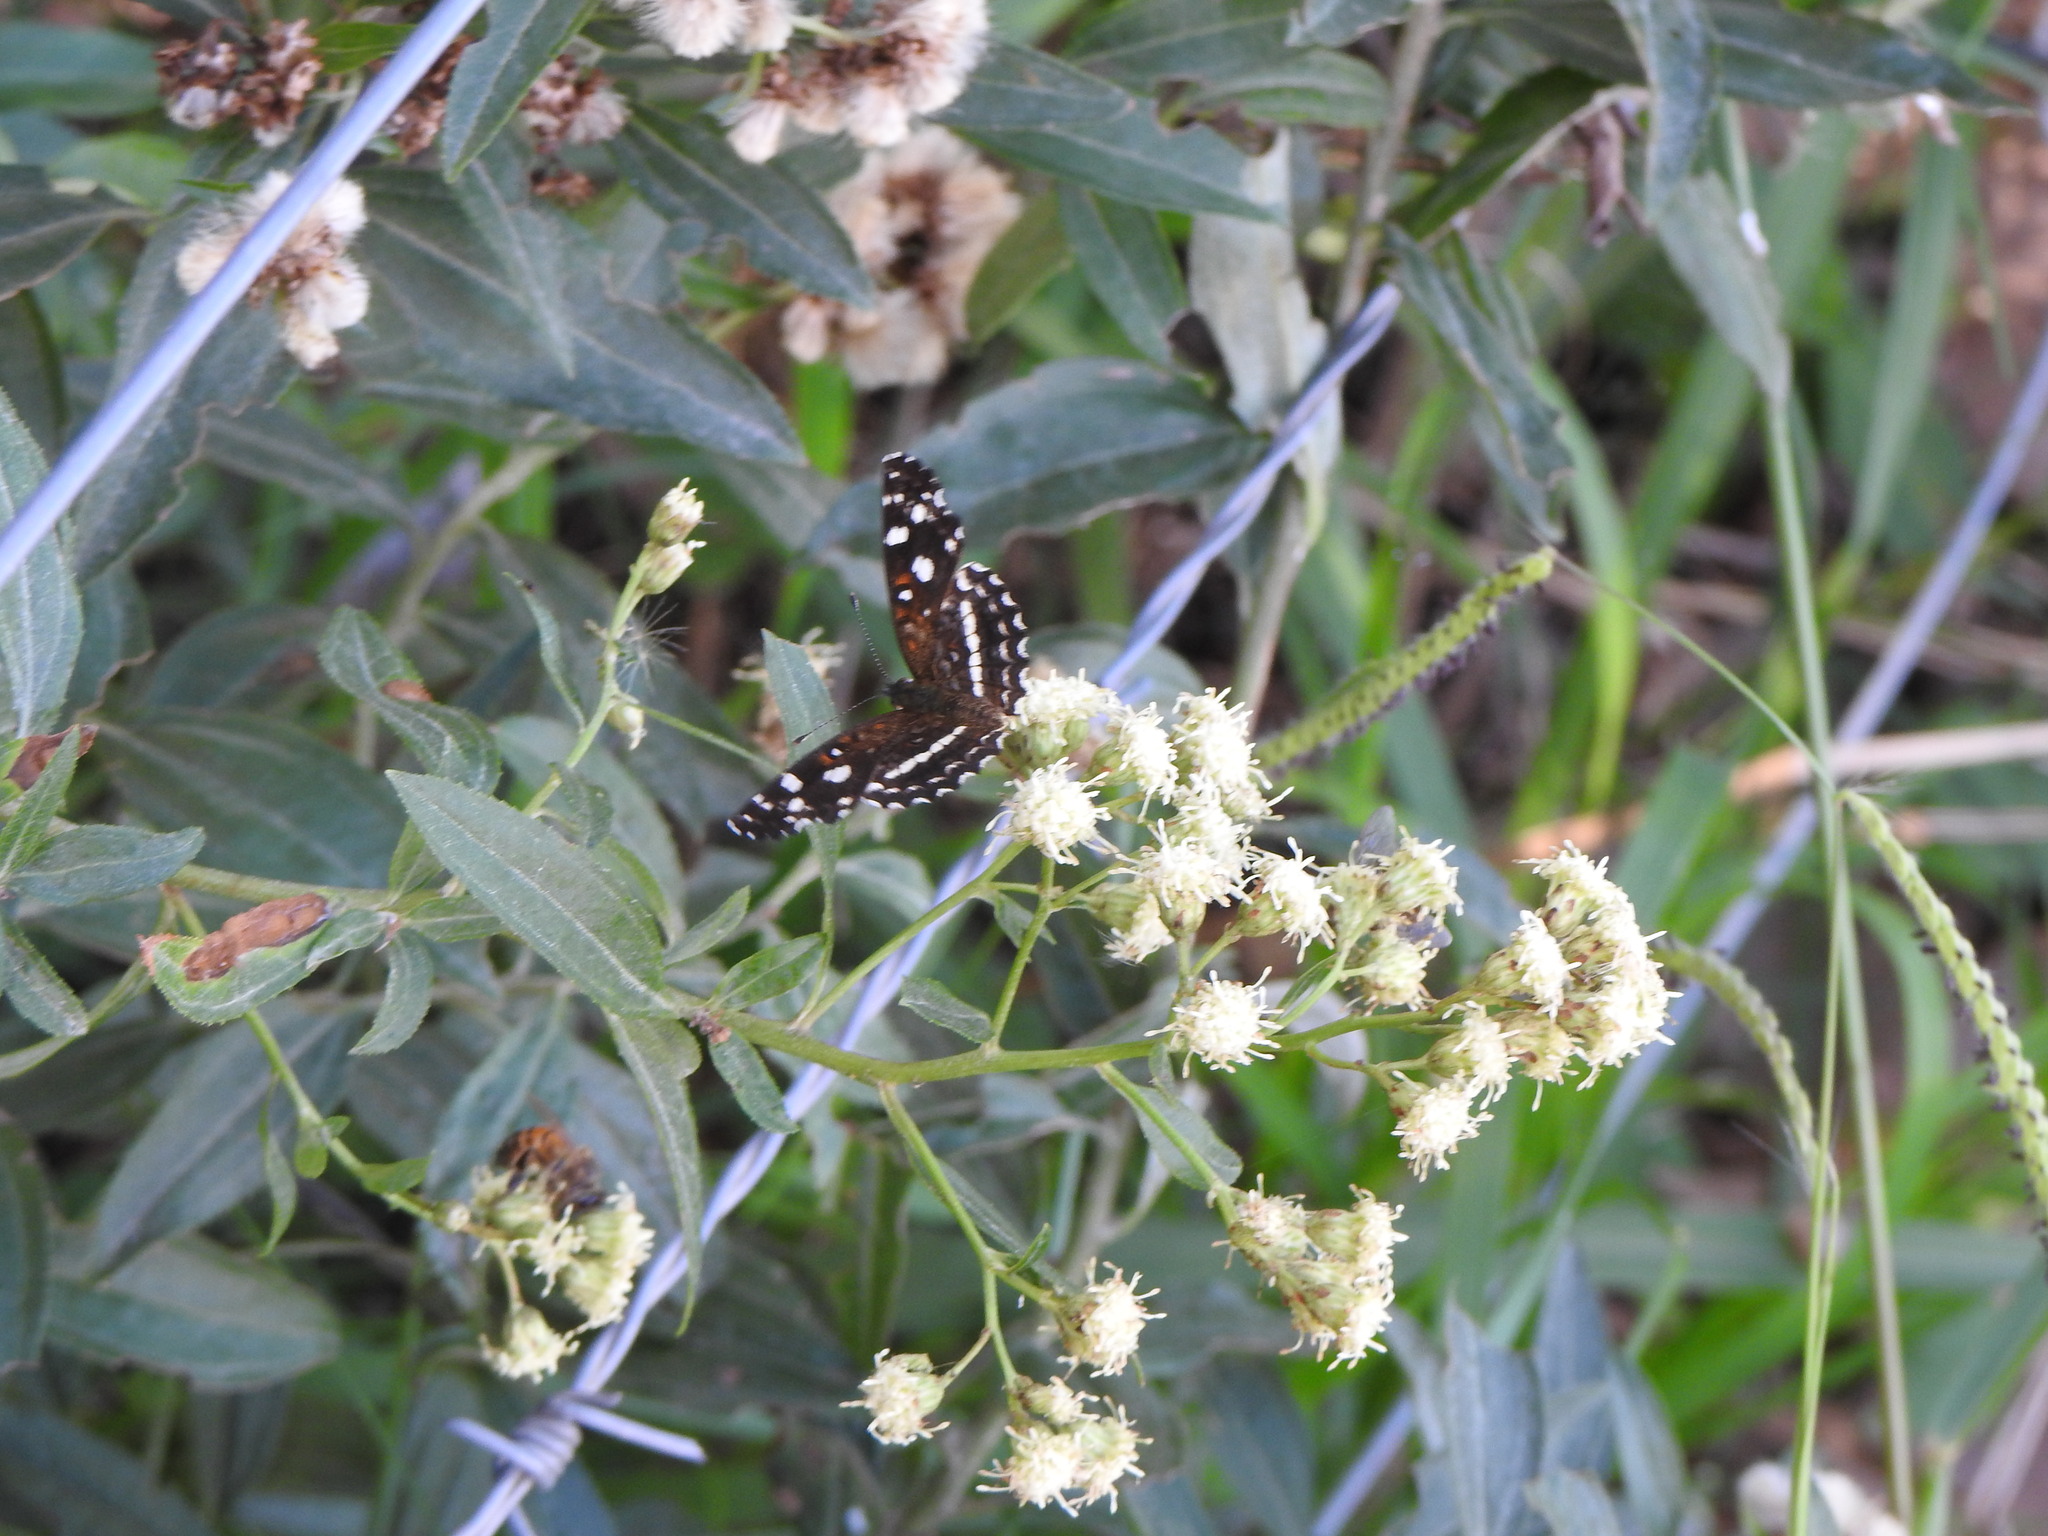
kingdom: Animalia
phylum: Arthropoda
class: Insecta
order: Lepidoptera
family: Nymphalidae
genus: Ortilia
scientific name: Ortilia ithra
